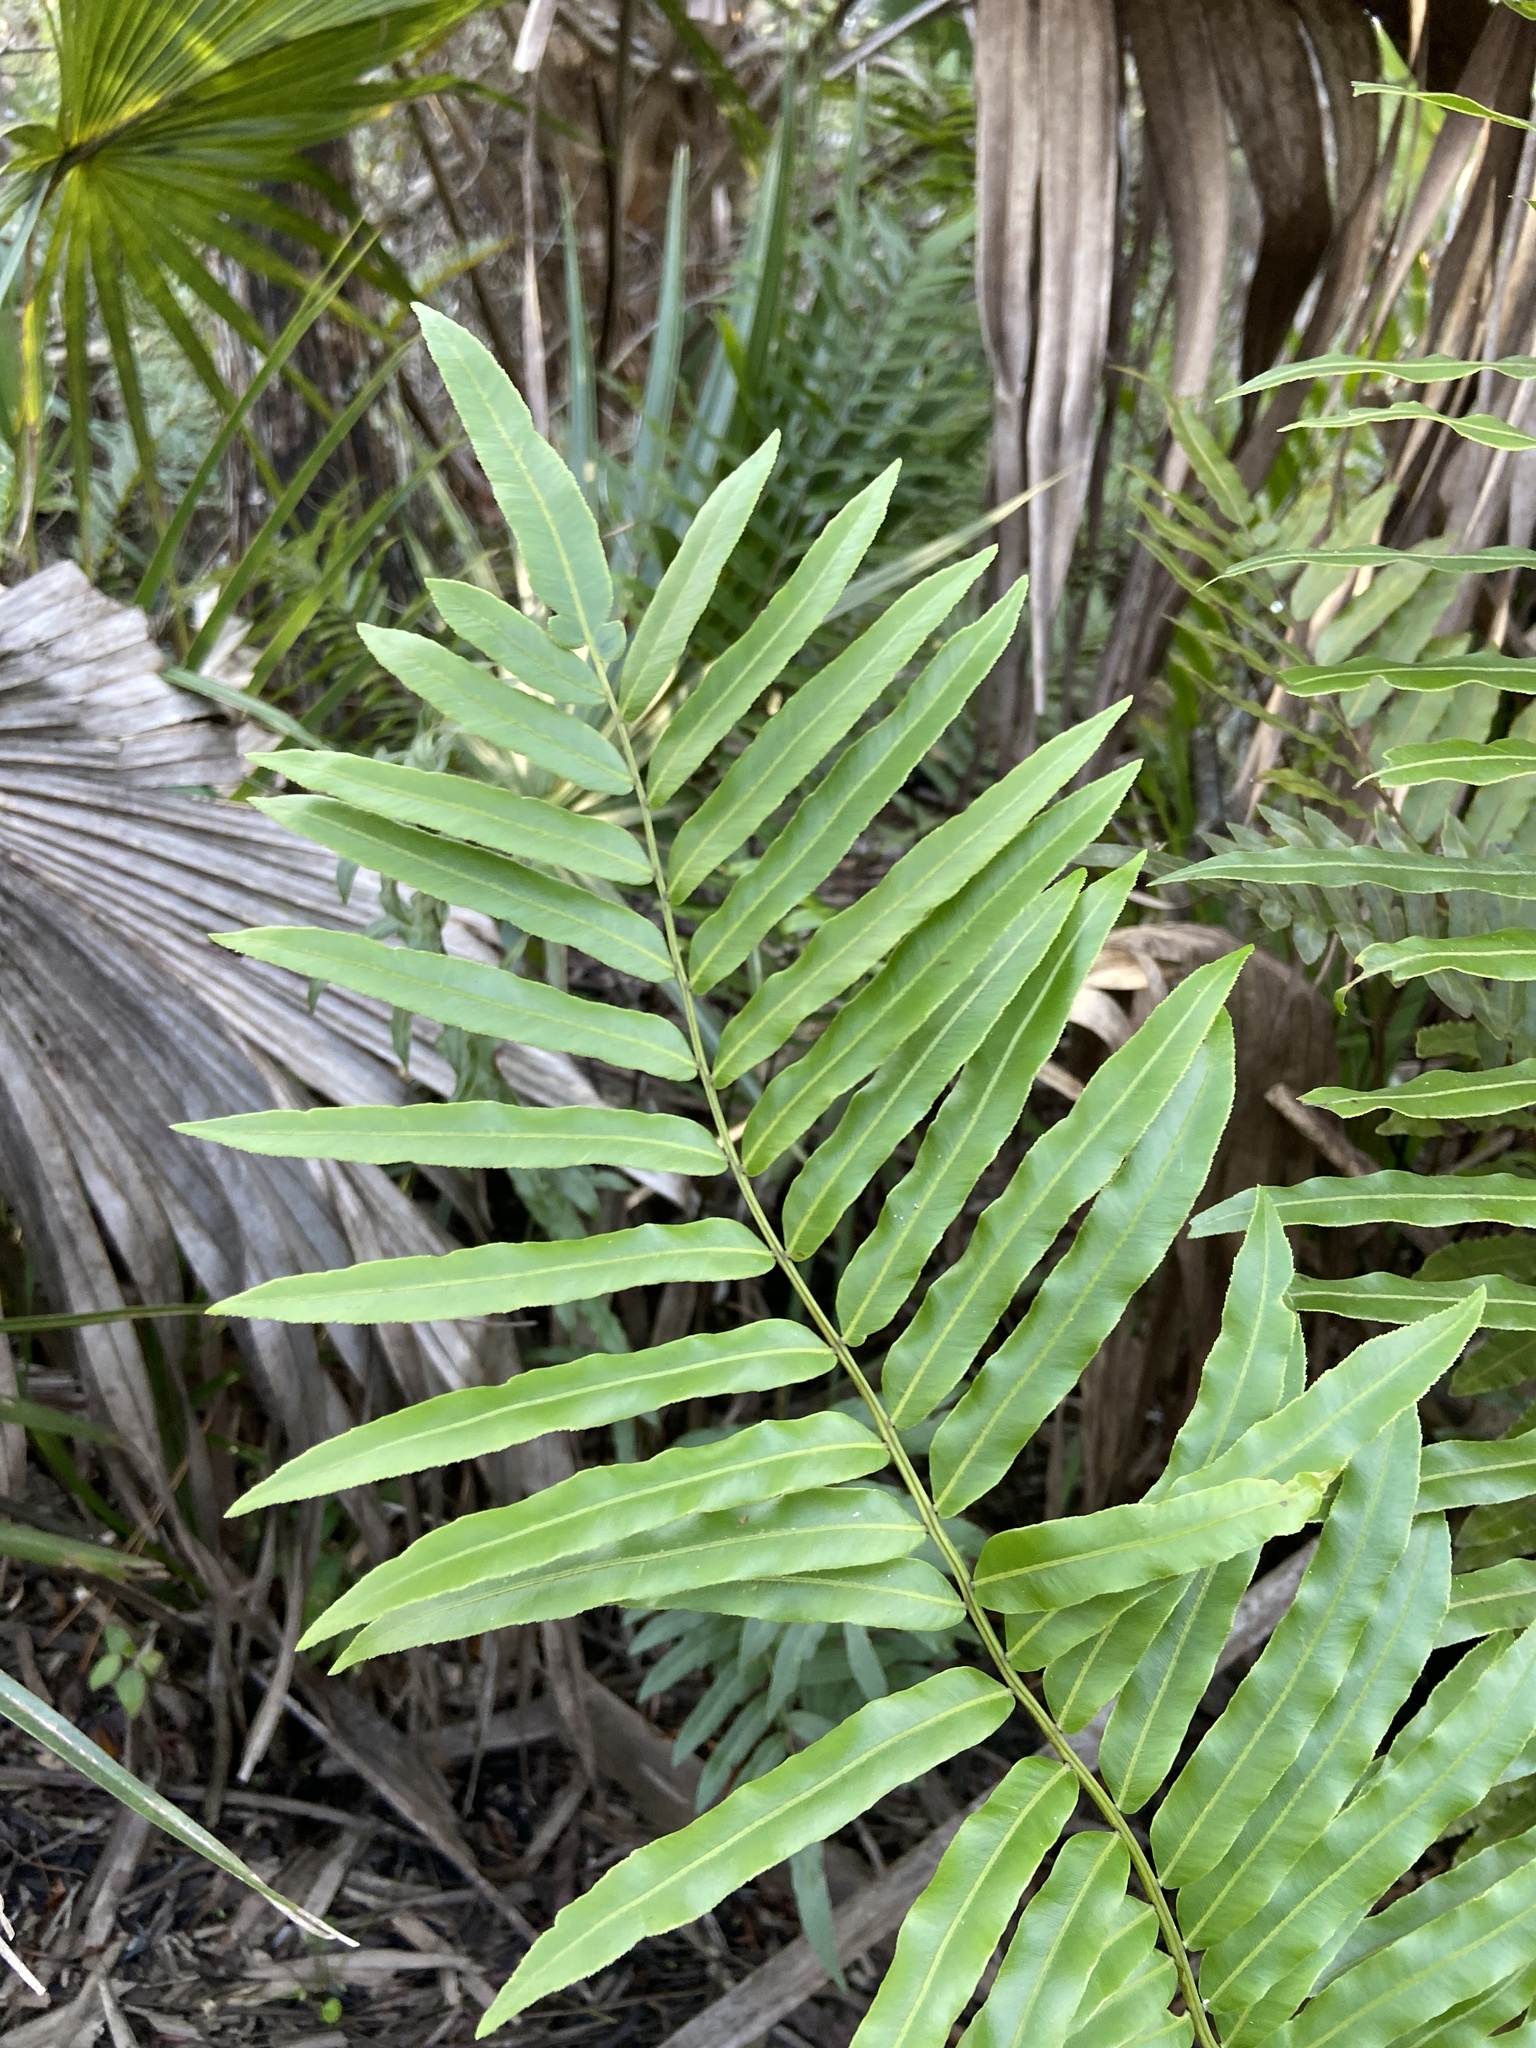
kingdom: Plantae
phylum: Tracheophyta
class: Polypodiopsida
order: Polypodiales
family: Blechnaceae
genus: Telmatoblechnum
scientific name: Telmatoblechnum serrulatum
